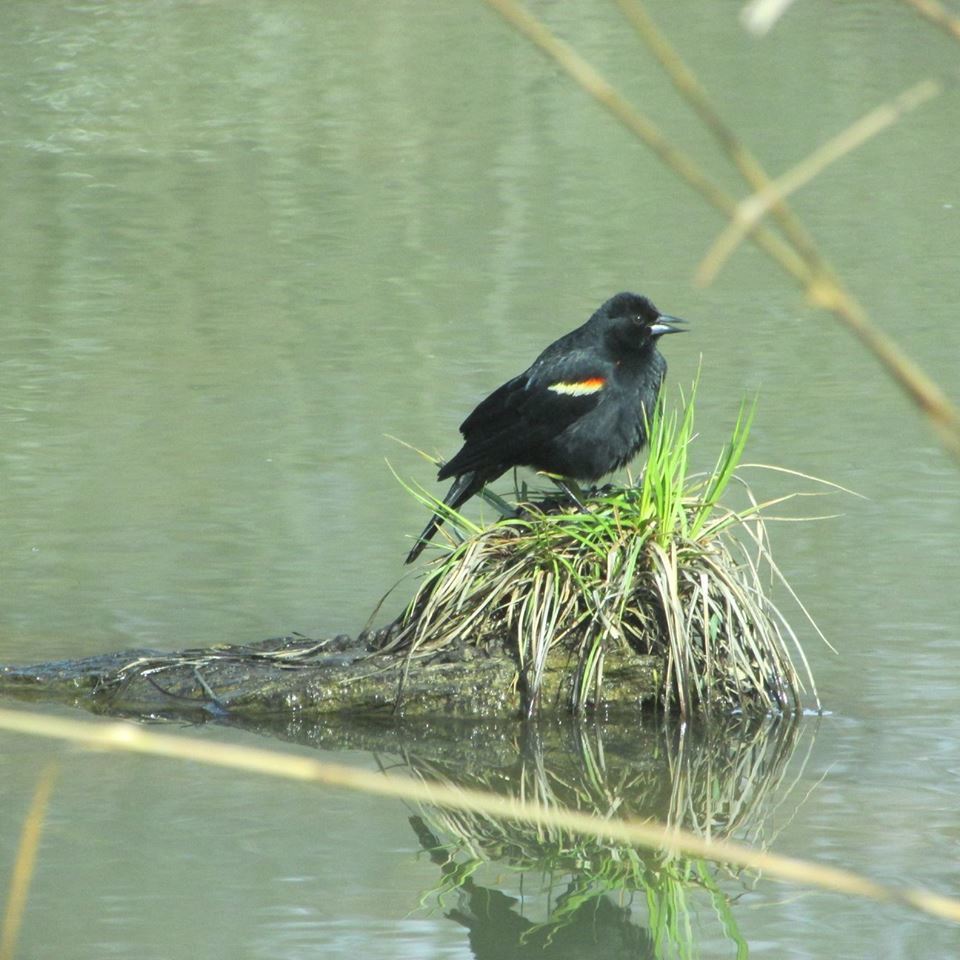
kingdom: Animalia
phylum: Chordata
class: Aves
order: Passeriformes
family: Icteridae
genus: Agelaius
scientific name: Agelaius phoeniceus
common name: Red-winged blackbird
